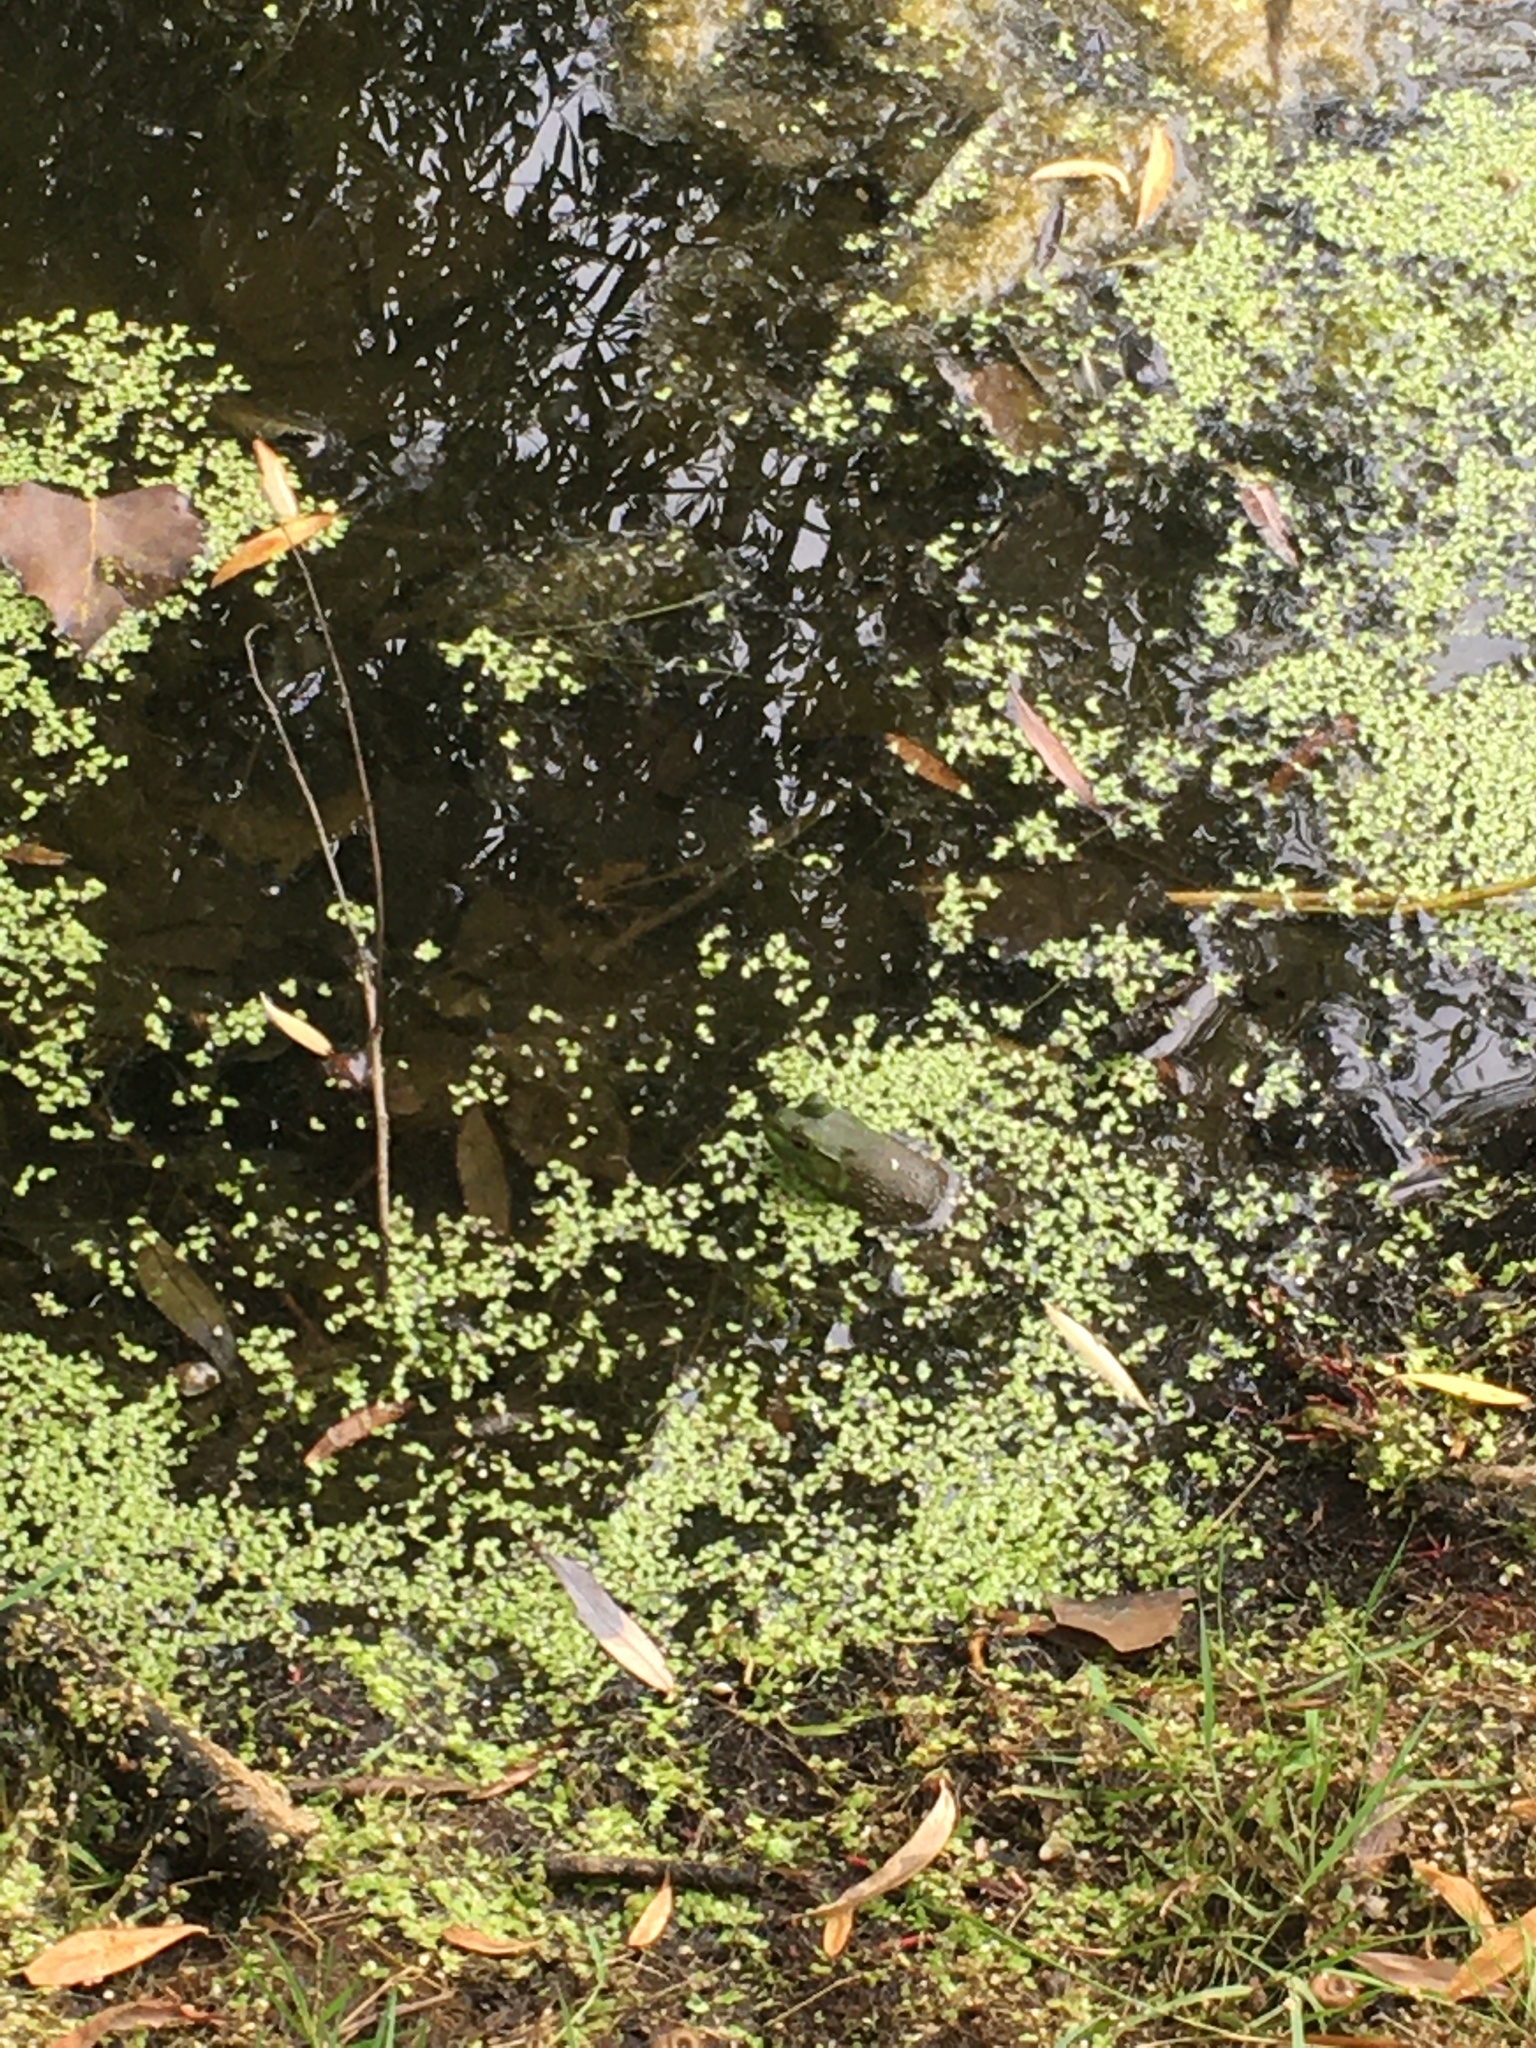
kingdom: Animalia
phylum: Chordata
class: Amphibia
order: Anura
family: Ranidae
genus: Lithobates
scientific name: Lithobates catesbeianus
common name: American bullfrog
